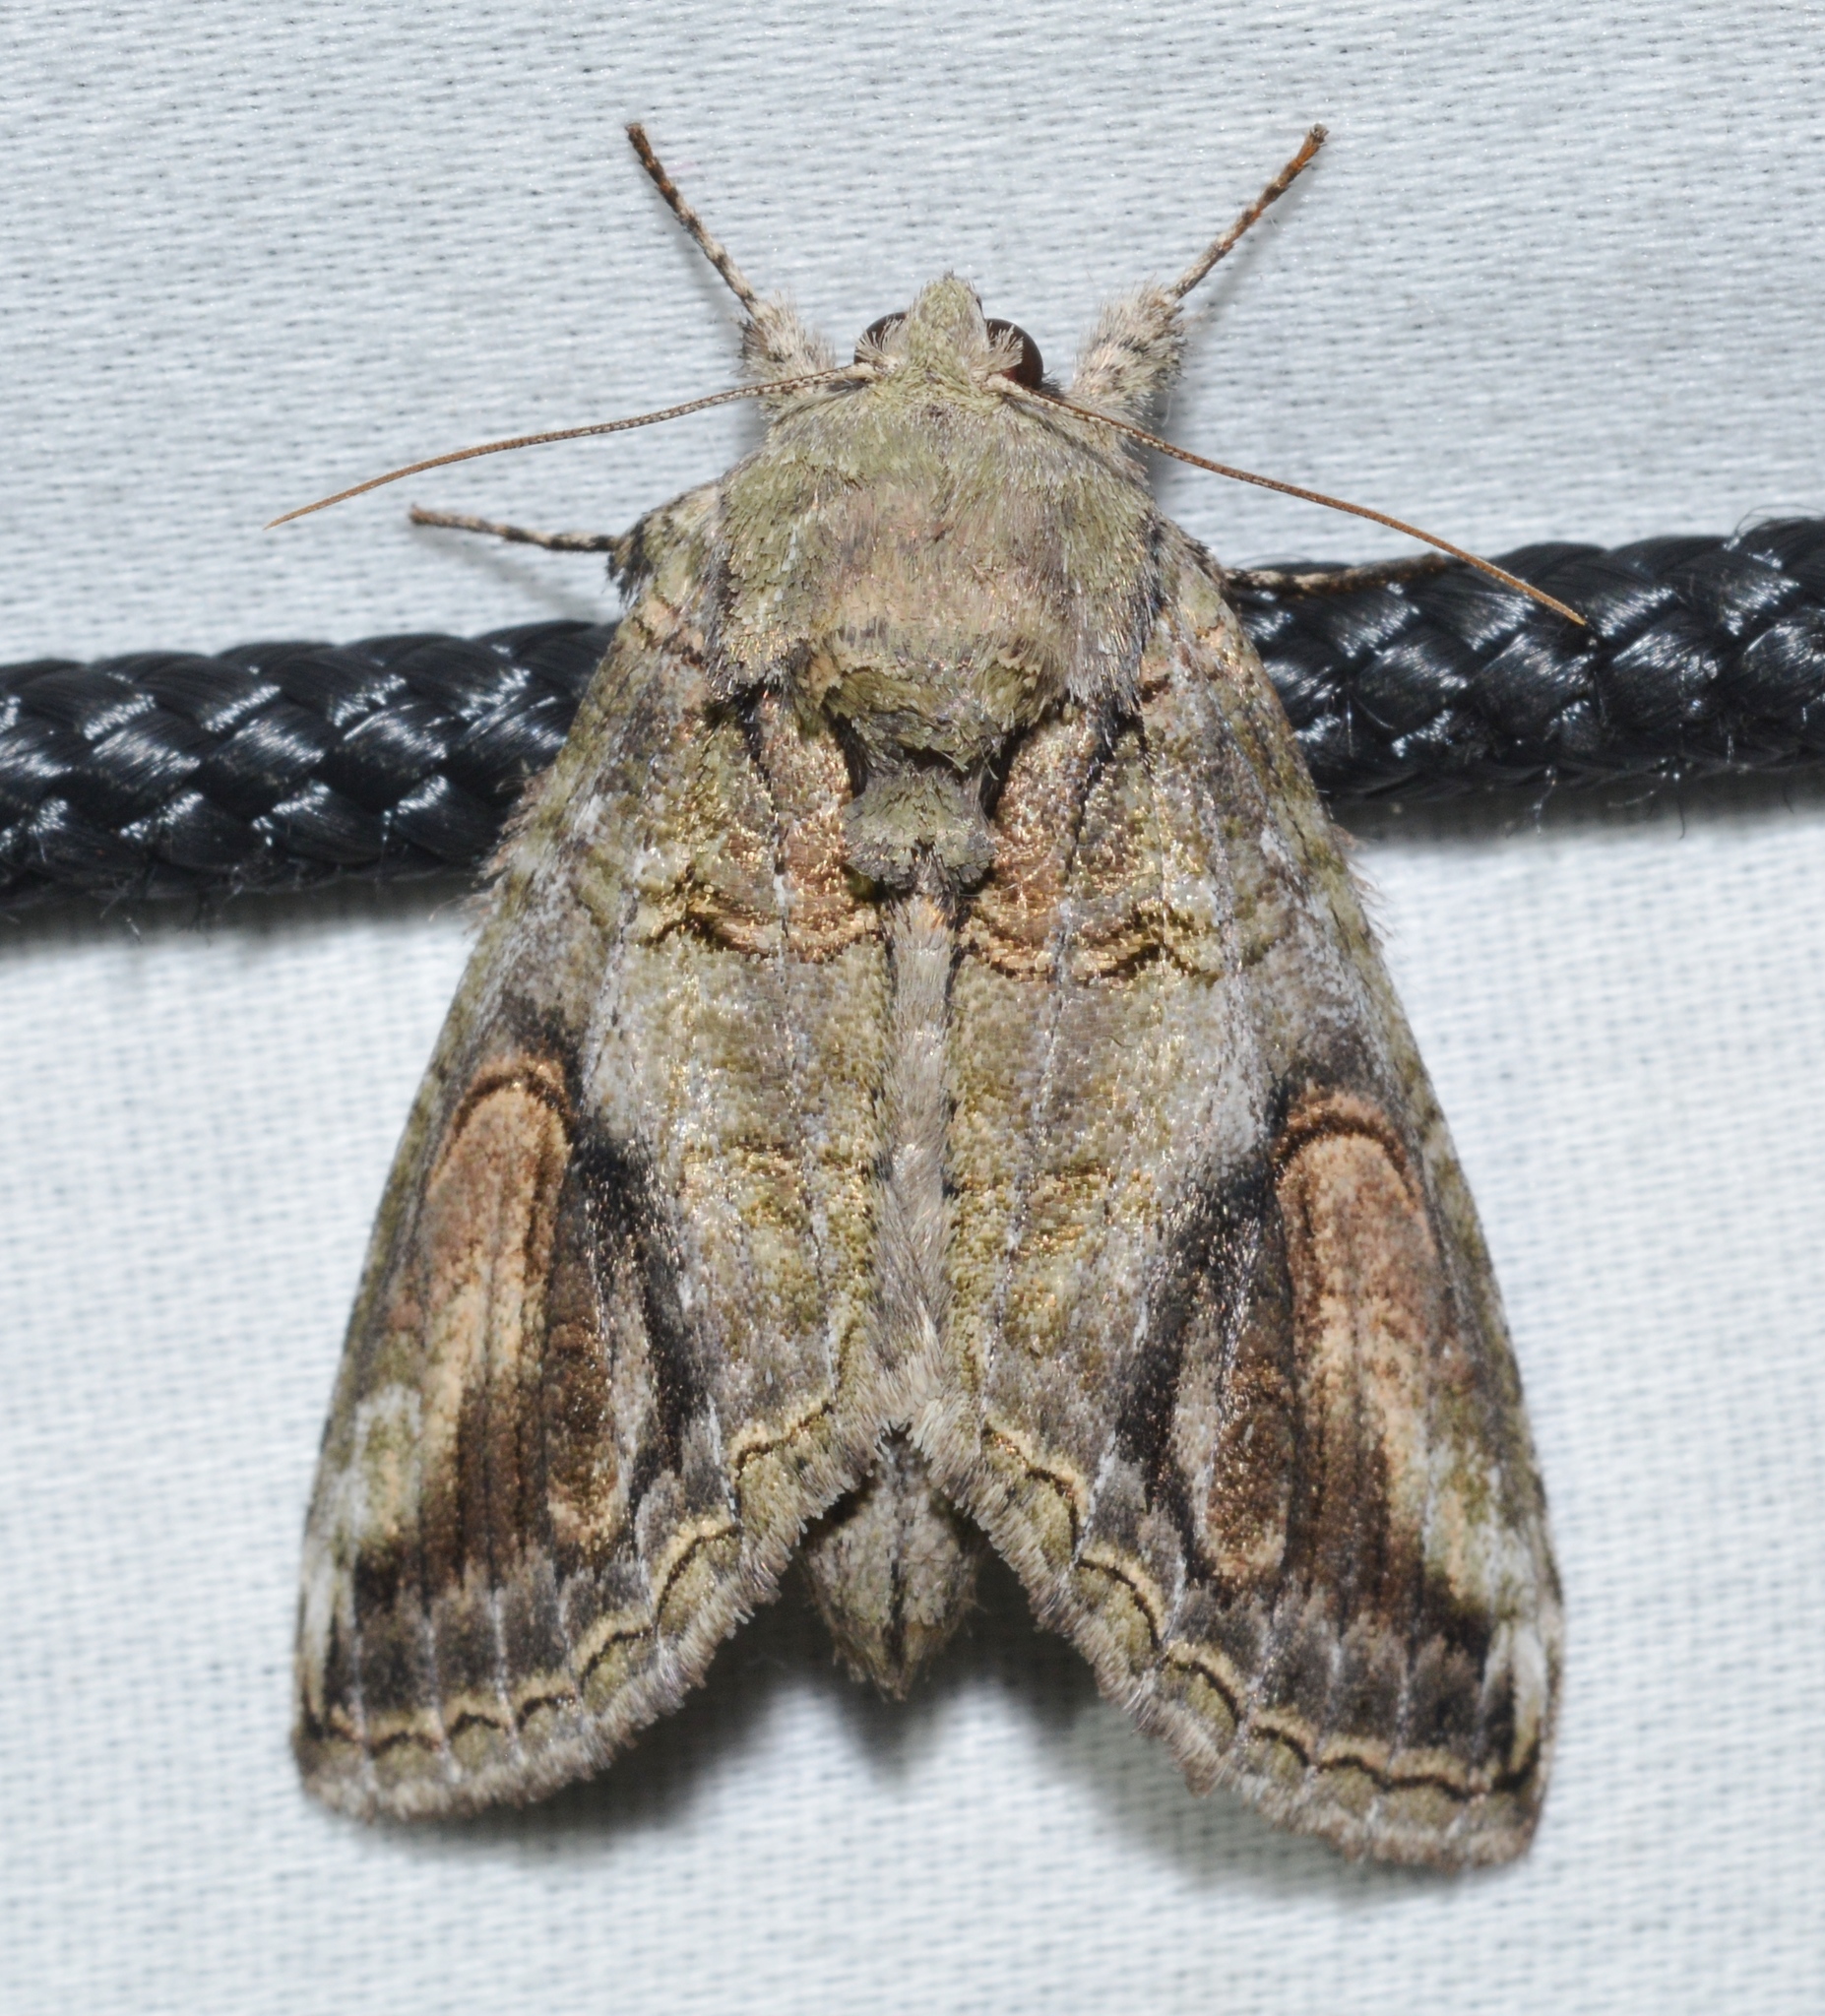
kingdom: Animalia
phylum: Arthropoda
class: Insecta
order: Lepidoptera
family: Notodontidae
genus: Heterocampa
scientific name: Heterocampa obliqua
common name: Oblique heterocampa
